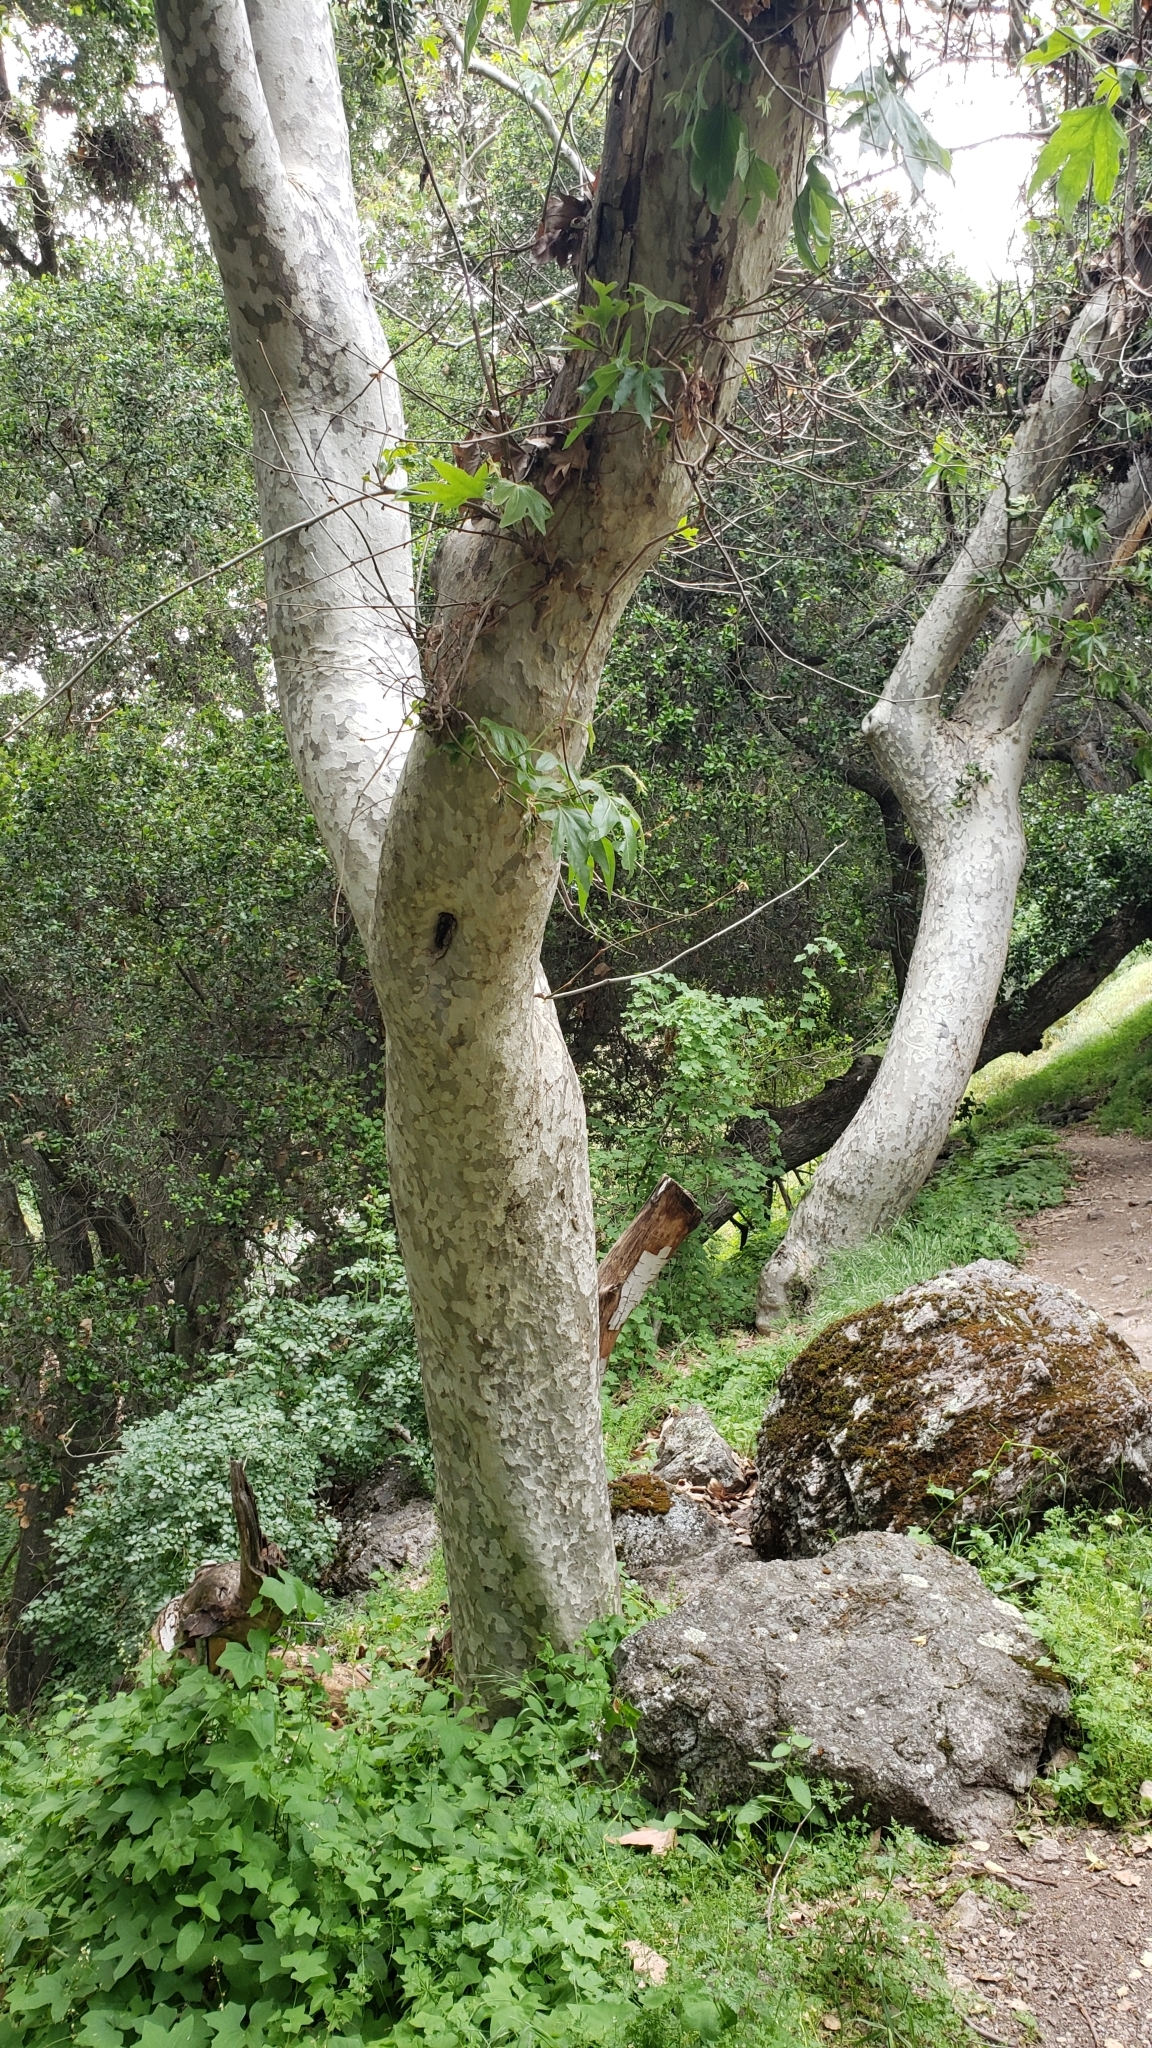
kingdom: Plantae
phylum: Tracheophyta
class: Magnoliopsida
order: Proteales
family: Platanaceae
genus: Platanus
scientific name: Platanus racemosa
